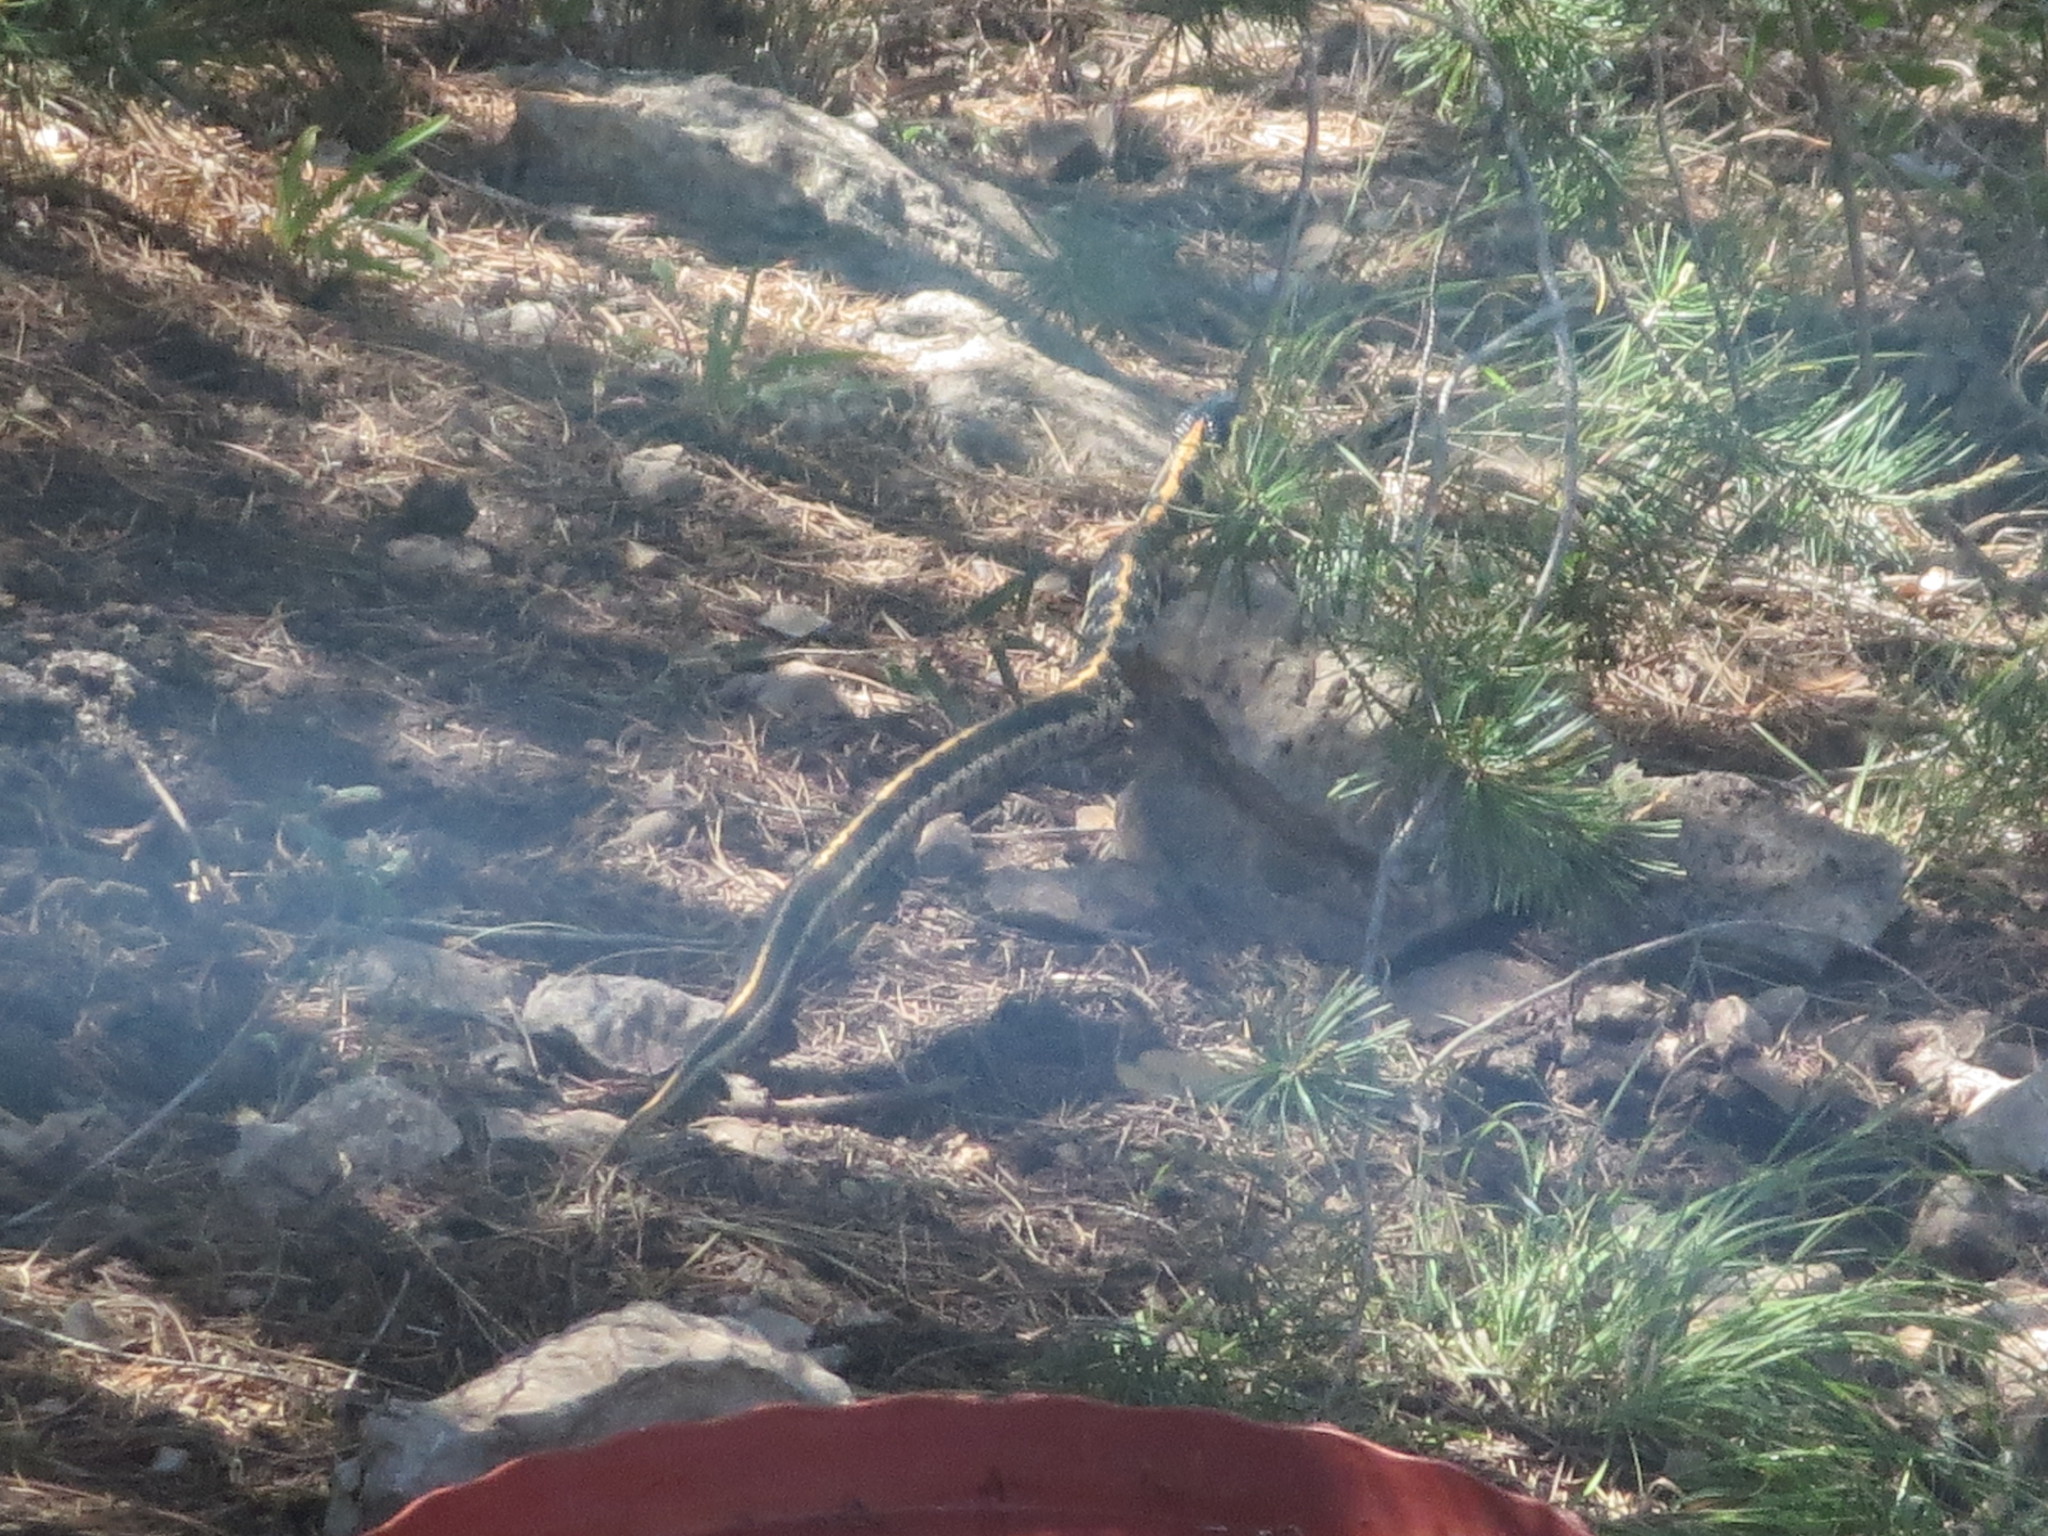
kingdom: Animalia
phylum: Chordata
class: Squamata
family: Colubridae
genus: Thamnophis
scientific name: Thamnophis cyrtopsis
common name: Black-necked gartersnake
